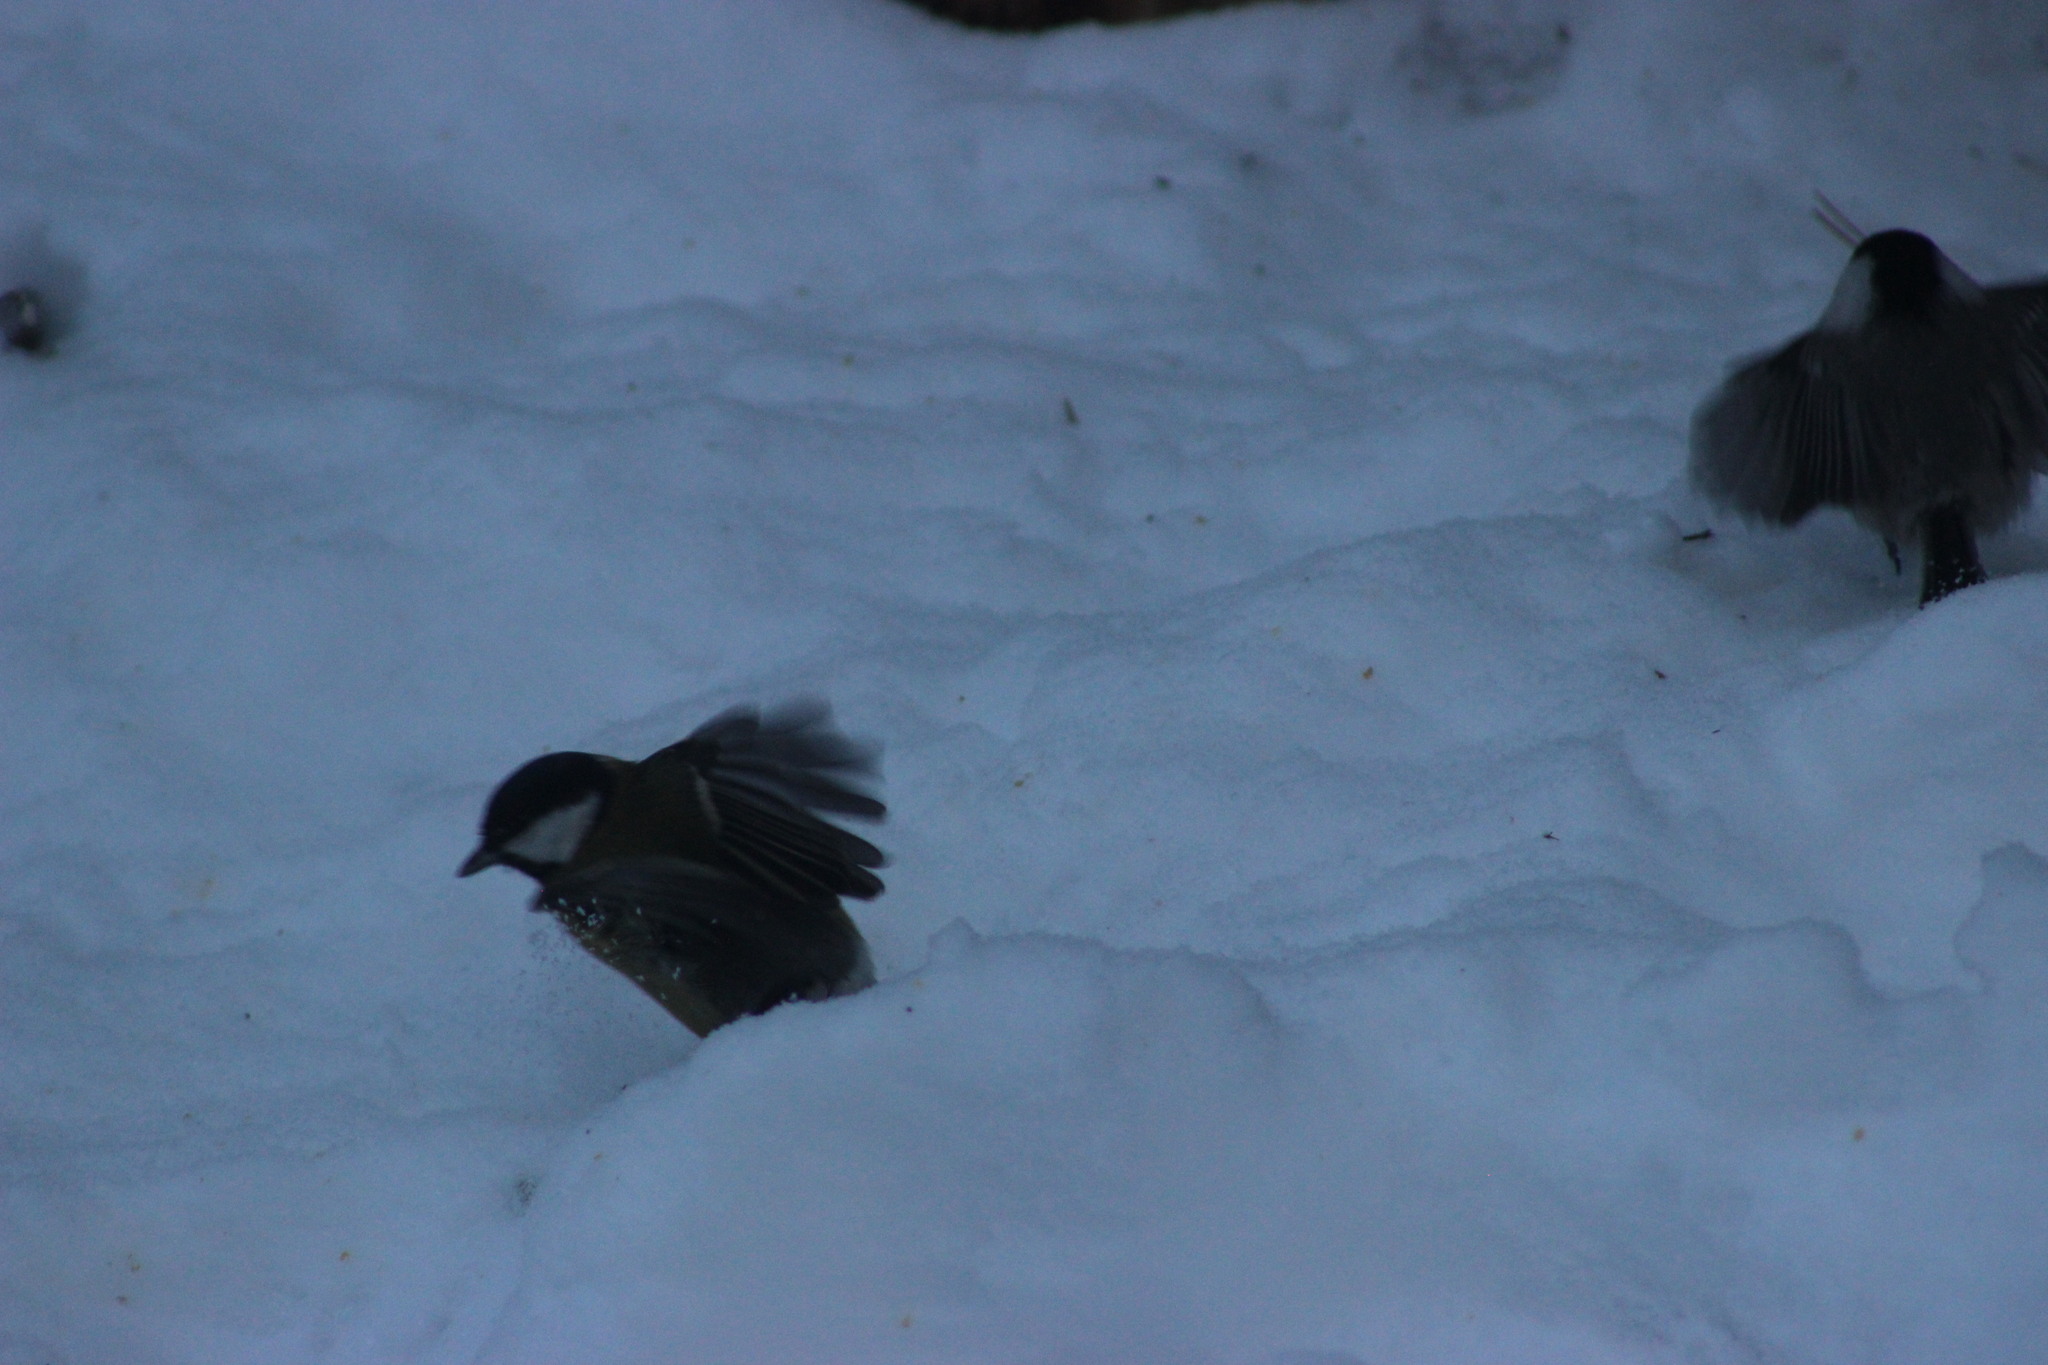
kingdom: Animalia
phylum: Chordata
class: Aves
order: Passeriformes
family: Paridae
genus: Parus
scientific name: Parus major
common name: Great tit
